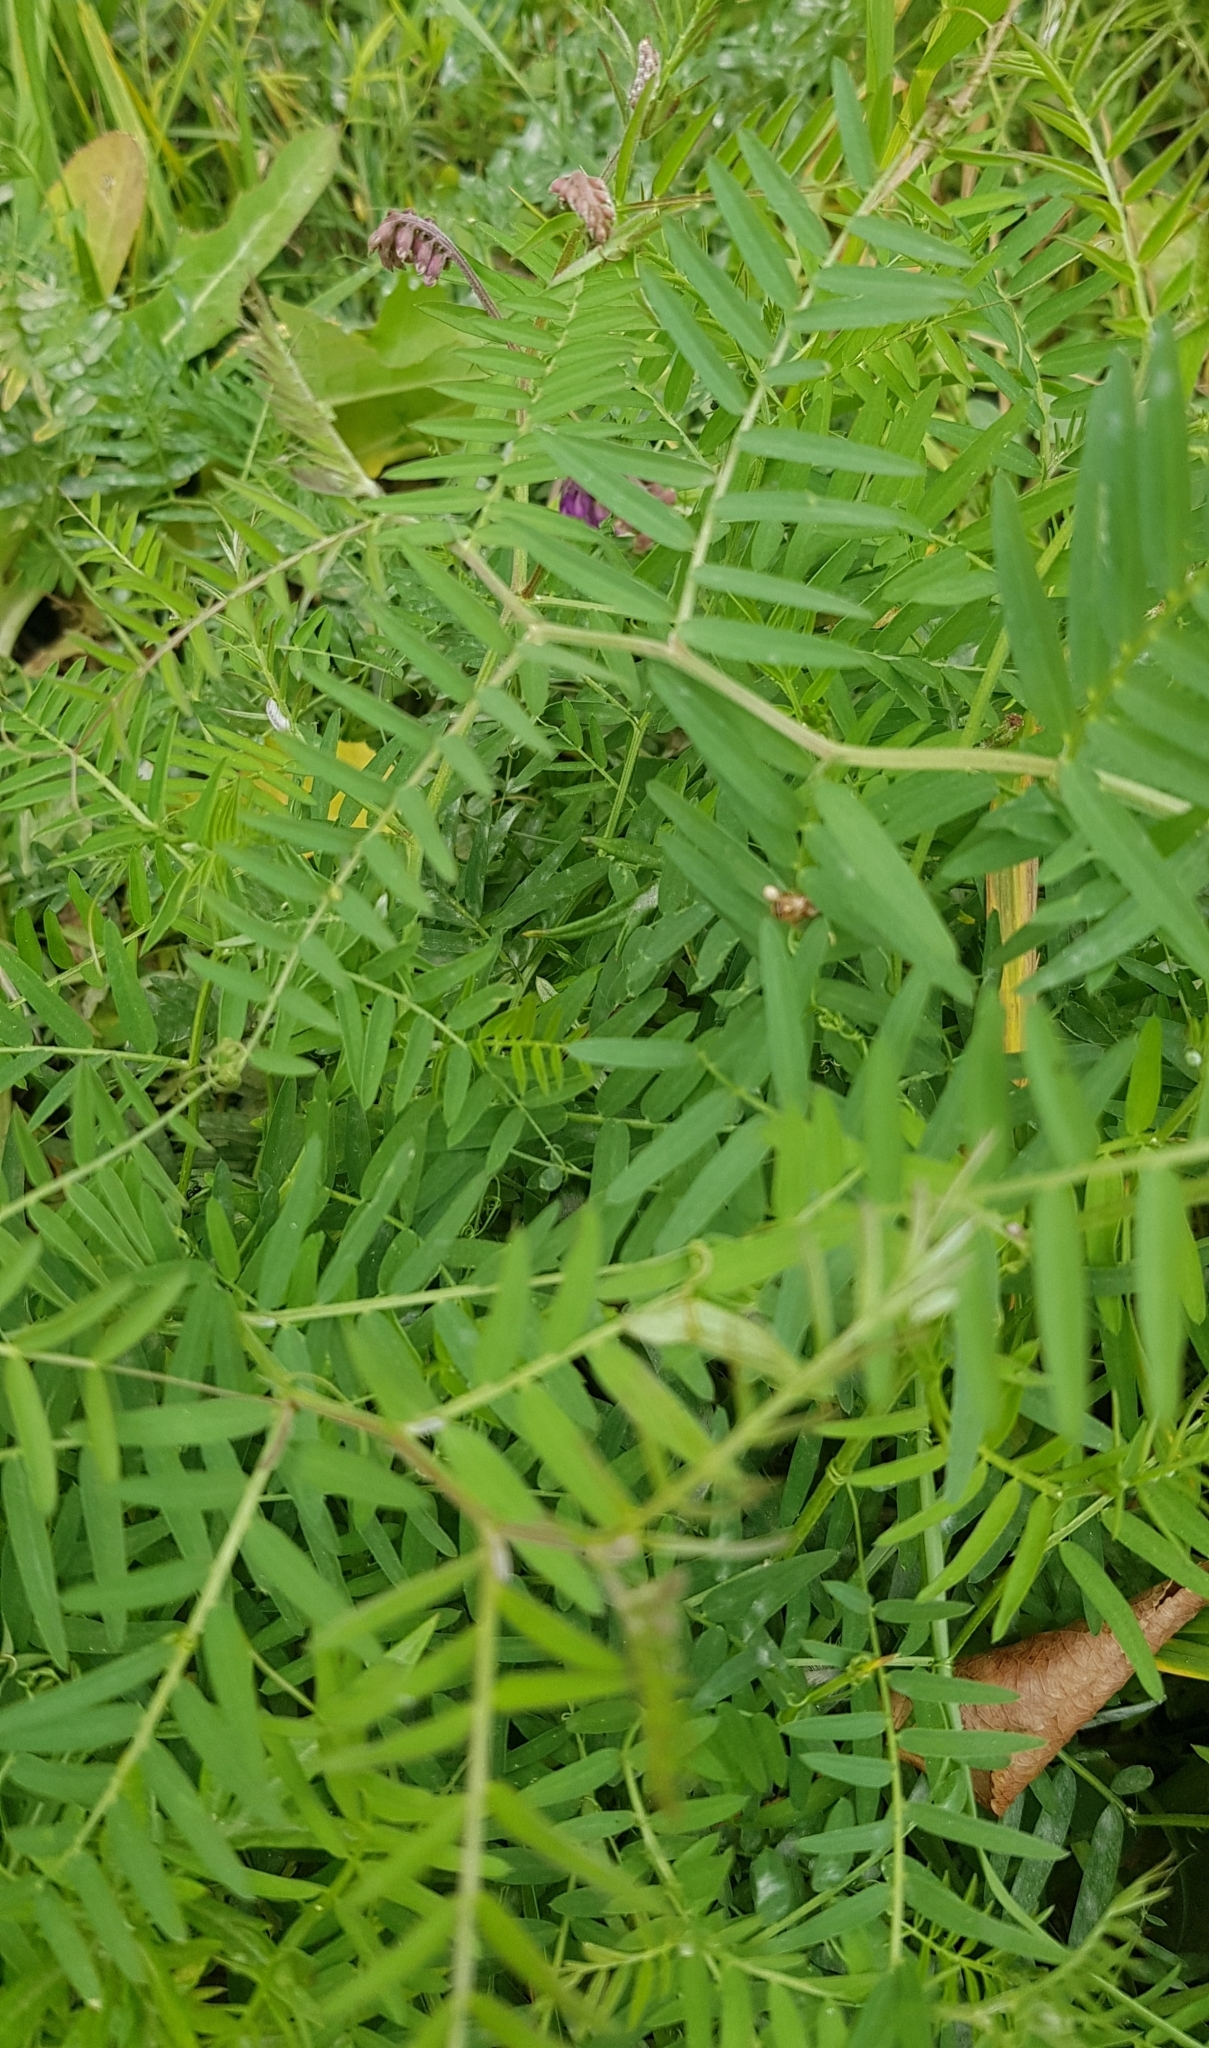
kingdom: Plantae
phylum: Tracheophyta
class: Magnoliopsida
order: Fabales
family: Fabaceae
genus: Vicia
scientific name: Vicia cracca
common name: Bird vetch
